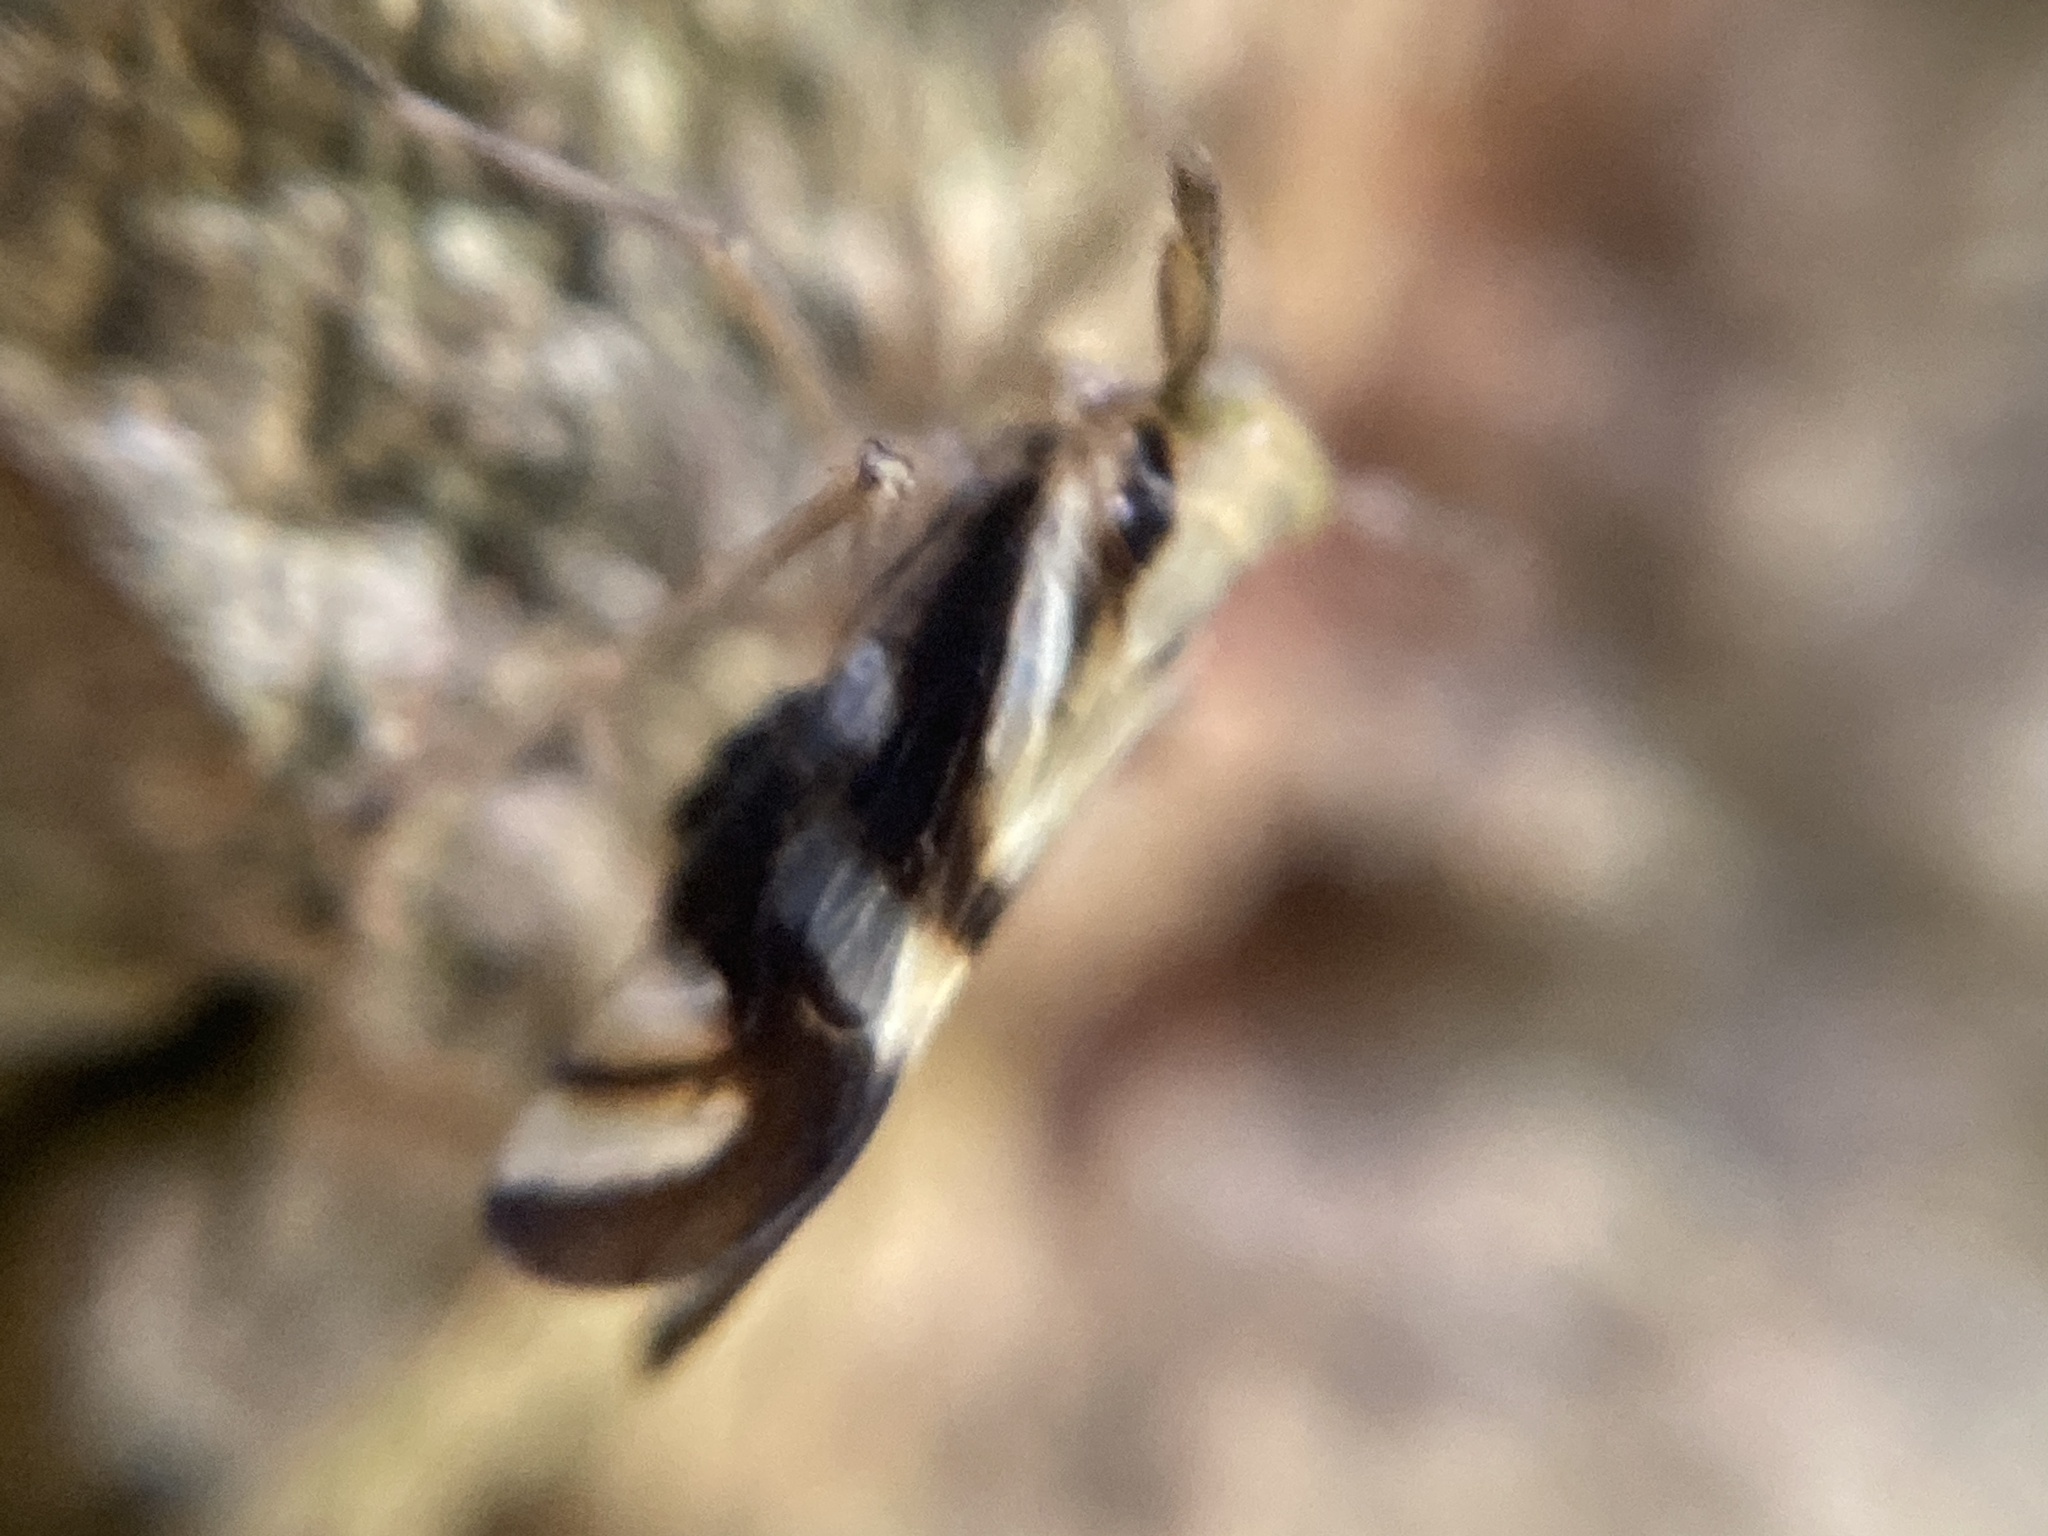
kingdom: Animalia
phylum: Arthropoda
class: Insecta
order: Hemiptera
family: Delphacidae
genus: Delphax
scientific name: Delphax crassicornis
